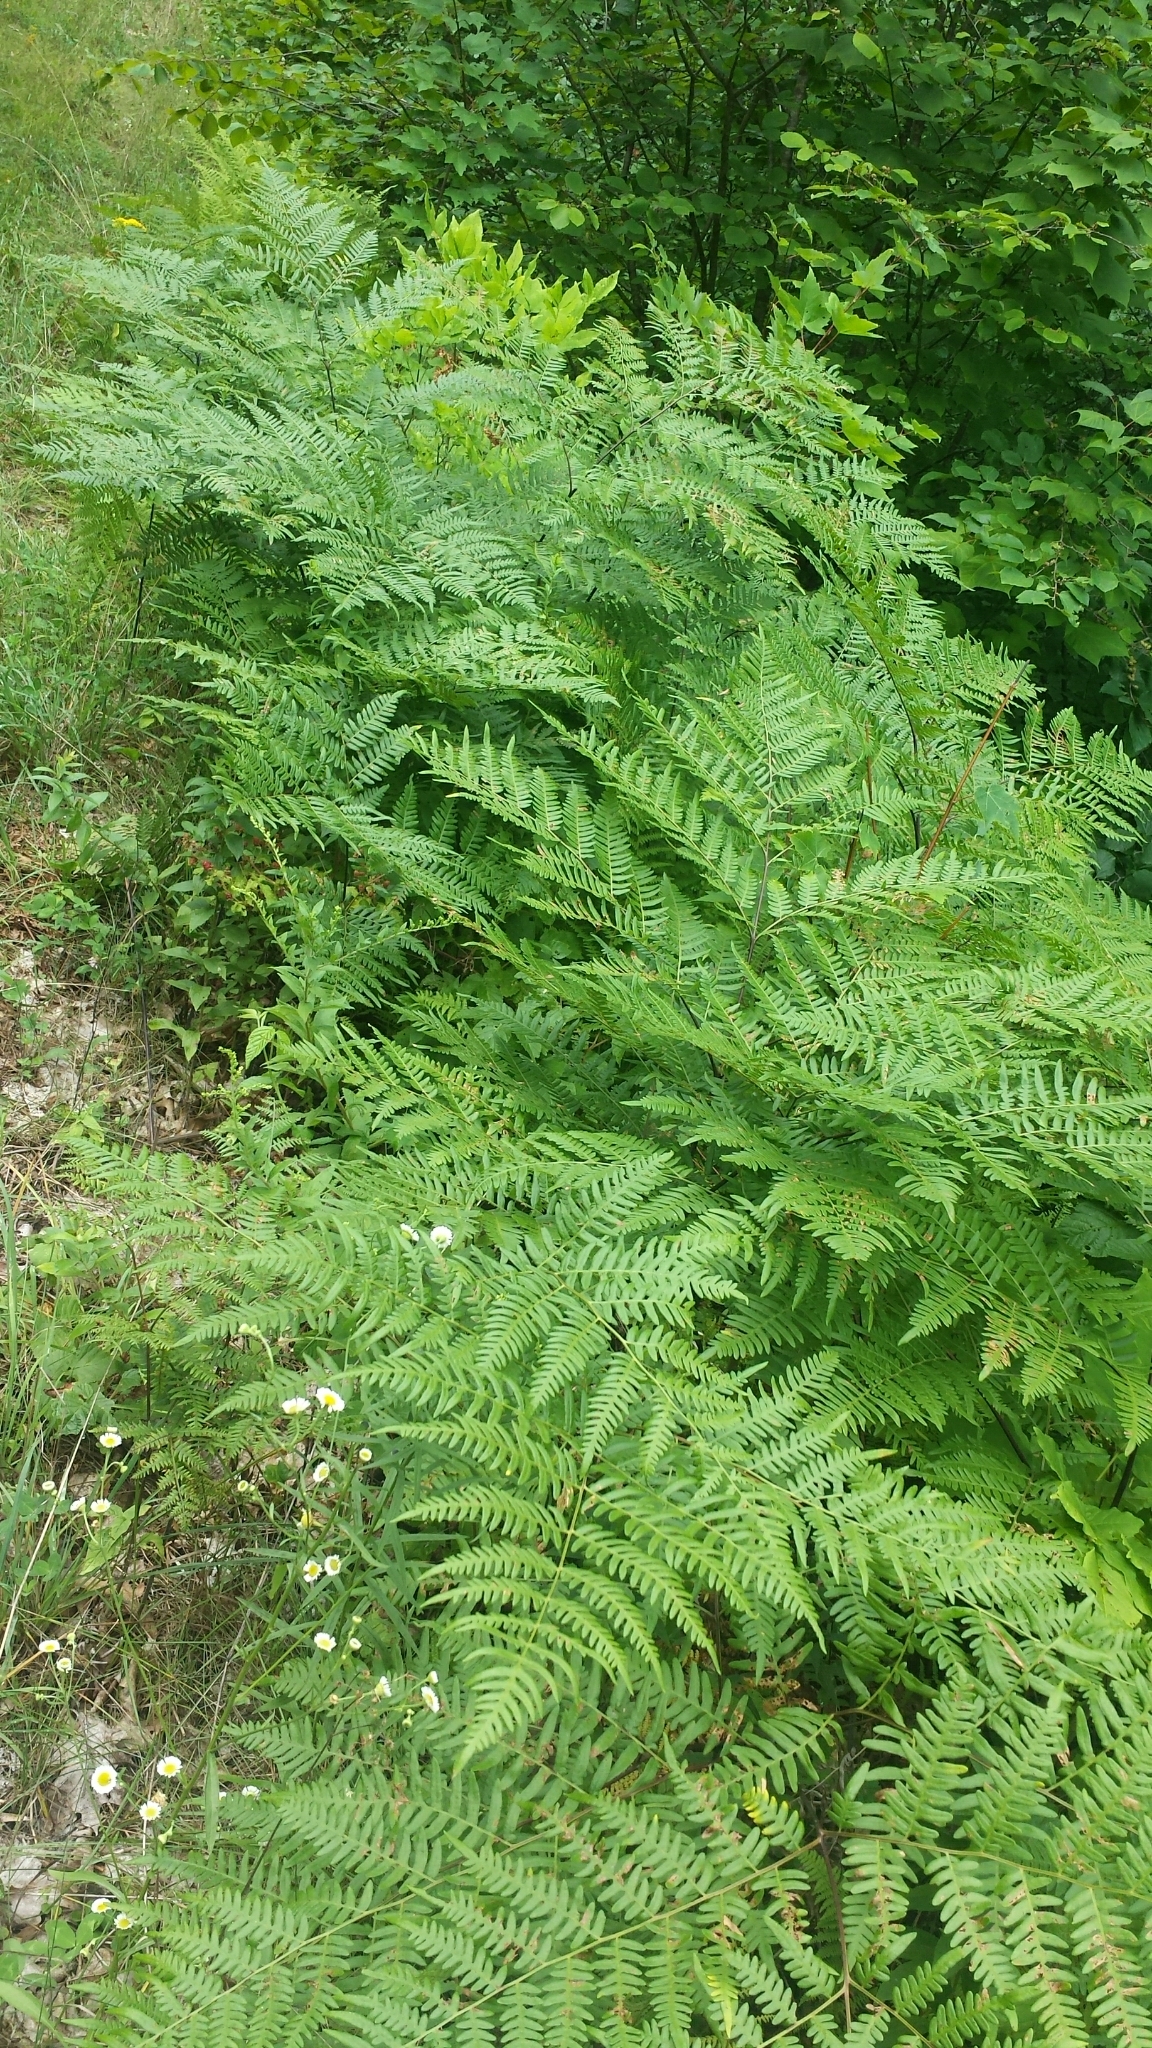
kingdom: Plantae
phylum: Tracheophyta
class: Polypodiopsida
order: Polypodiales
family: Dennstaedtiaceae
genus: Pteridium
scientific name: Pteridium aquilinum
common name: Bracken
